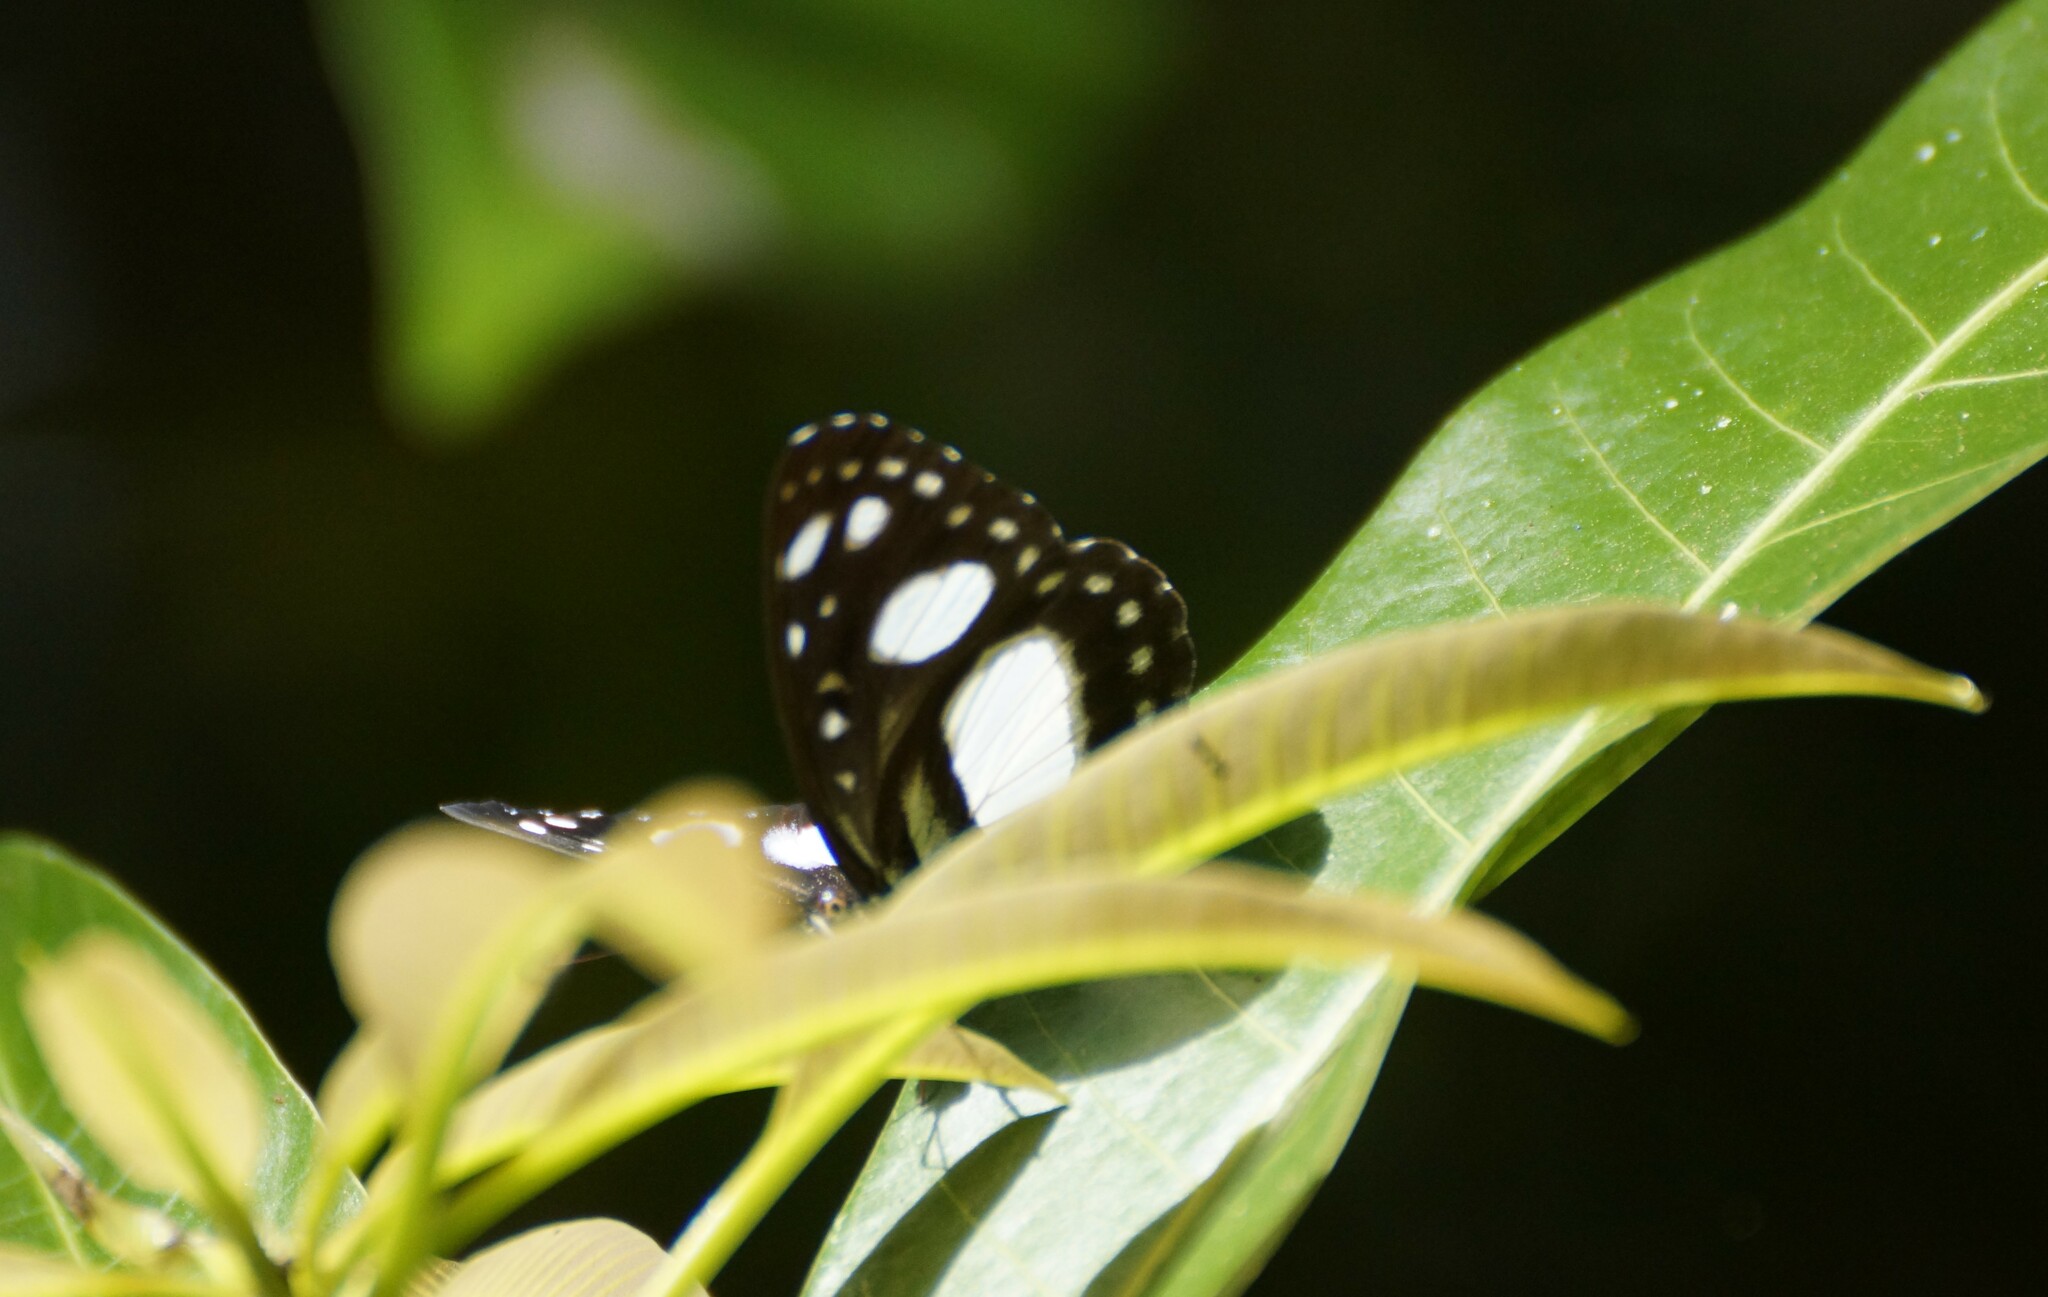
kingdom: Animalia
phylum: Arthropoda
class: Insecta
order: Lepidoptera
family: Nymphalidae
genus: Pantoporia
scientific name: Pantoporia venilia
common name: Cape york aeroplane
